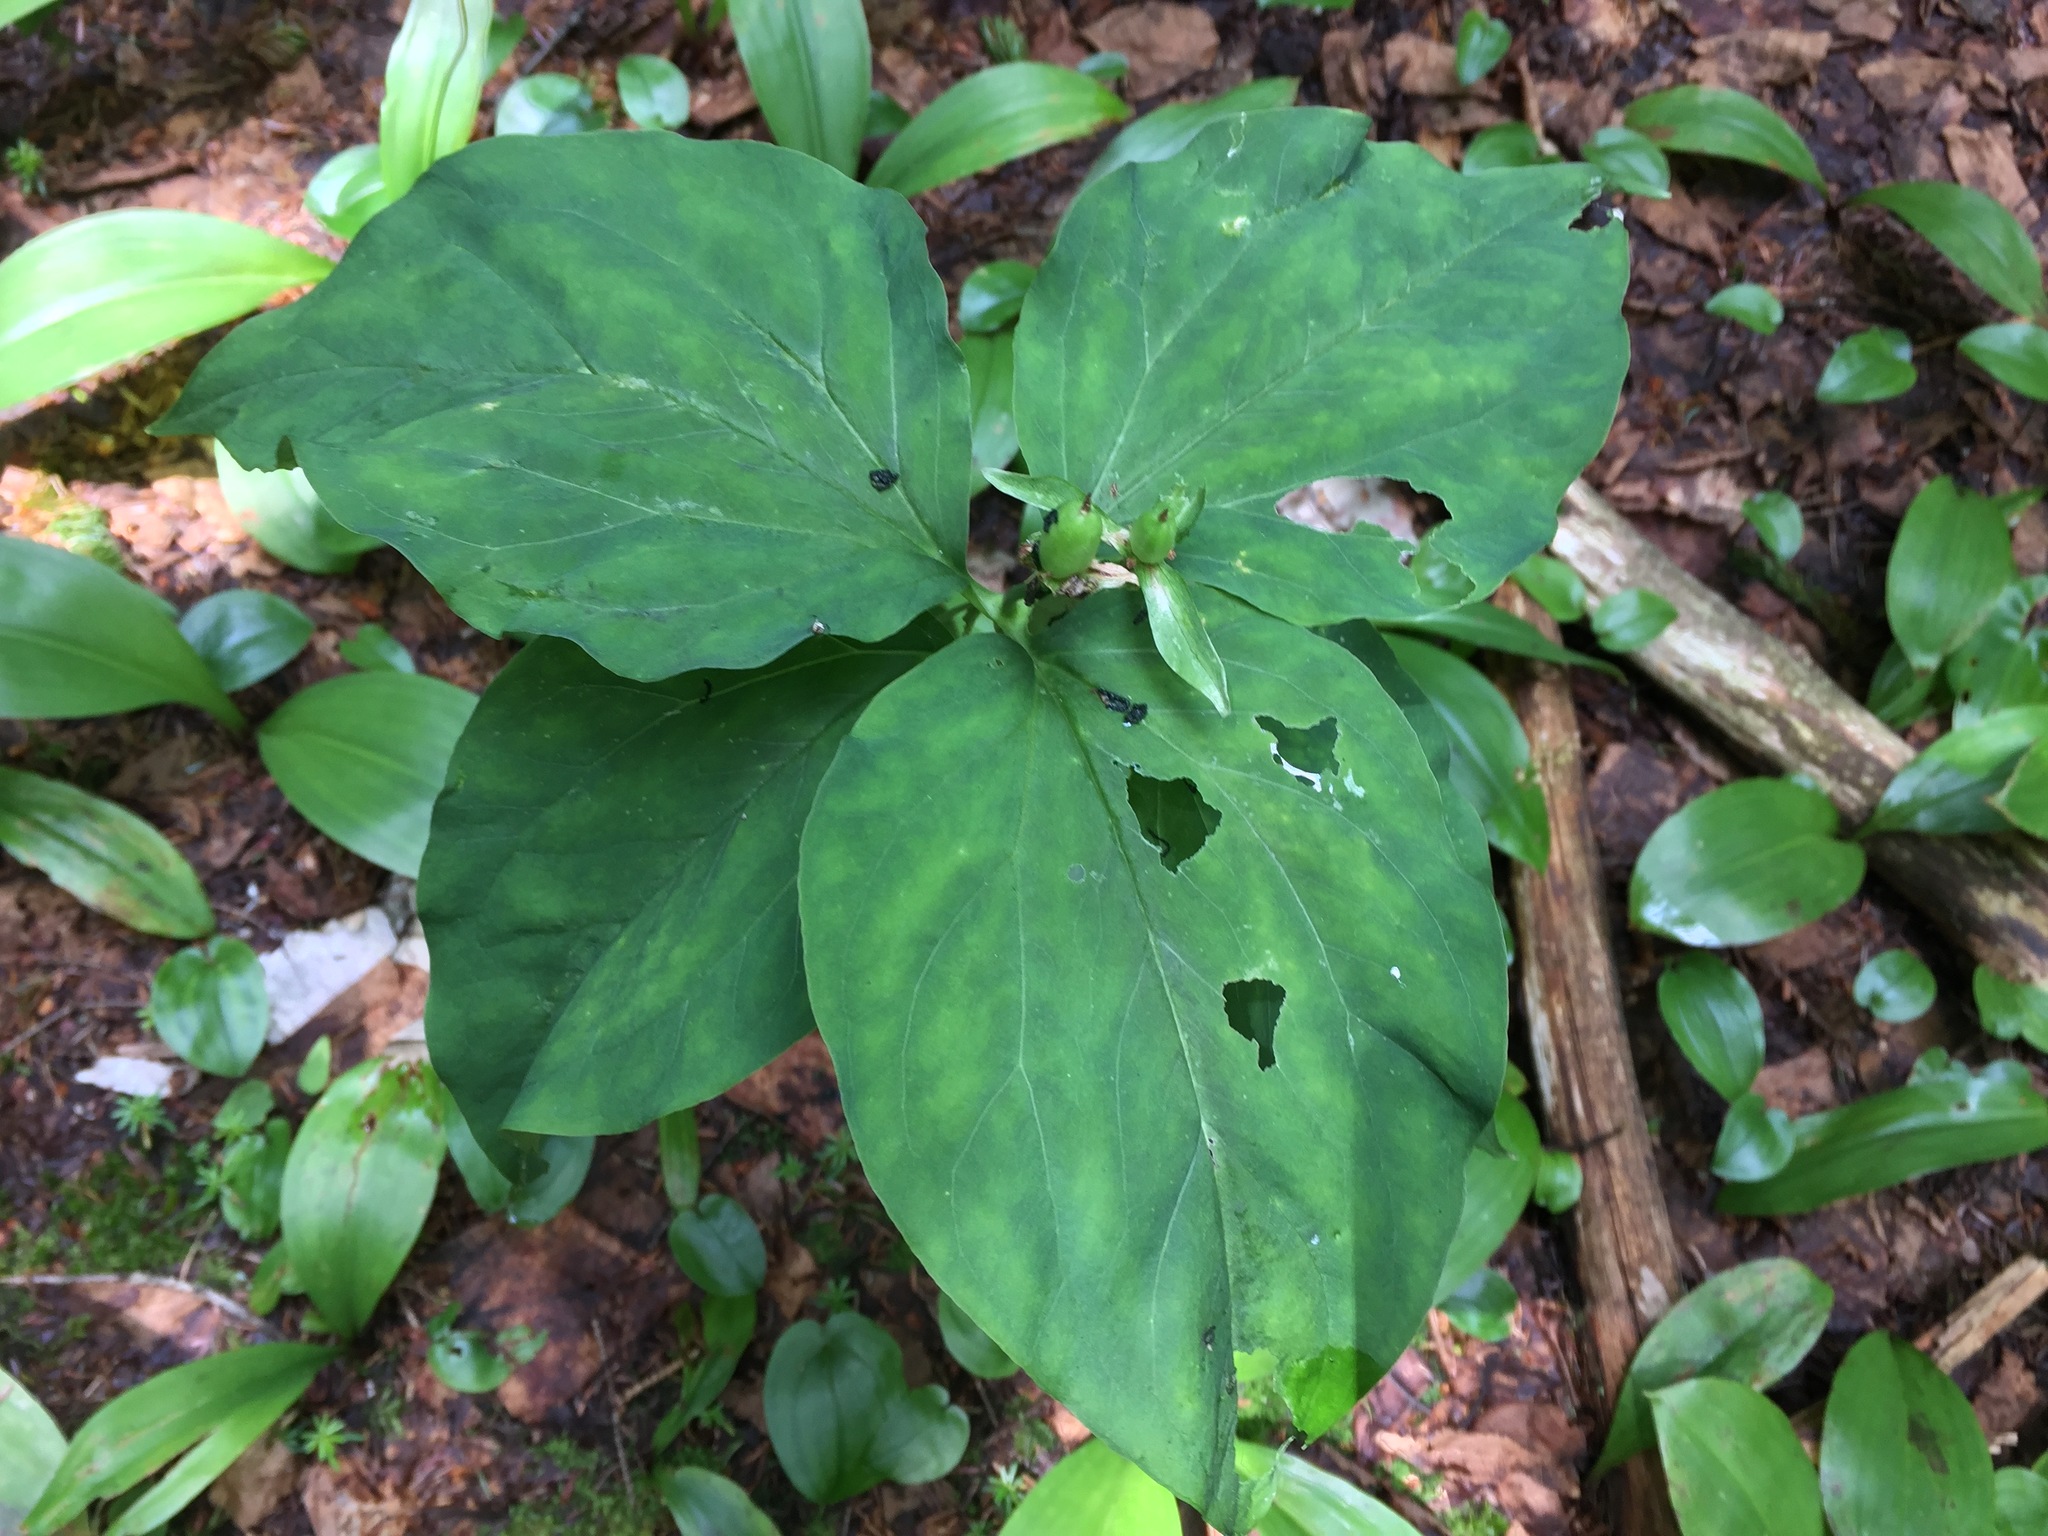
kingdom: Plantae
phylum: Tracheophyta
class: Liliopsida
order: Liliales
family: Melanthiaceae
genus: Trillium
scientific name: Trillium undulatum
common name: Paint trillium
